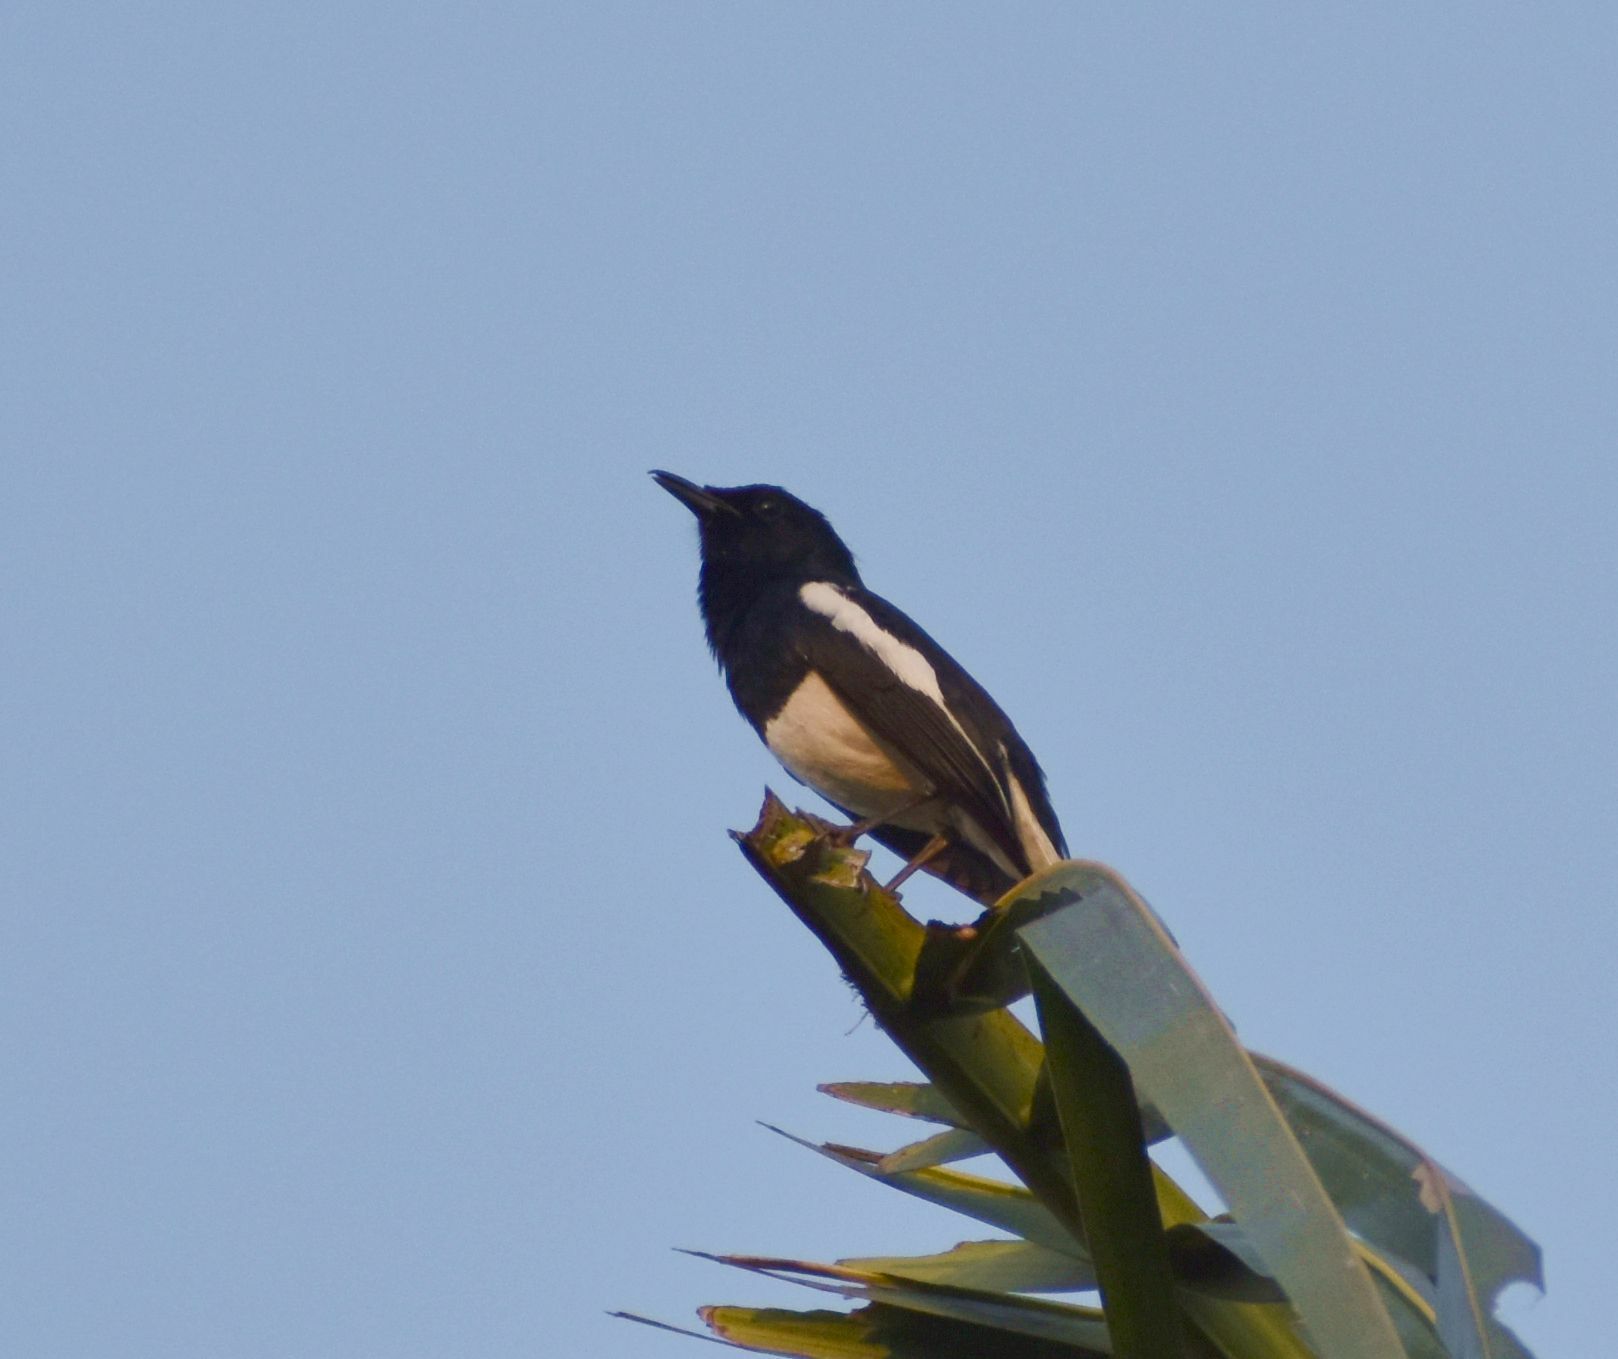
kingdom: Animalia
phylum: Chordata
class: Aves
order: Passeriformes
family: Muscicapidae
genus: Copsychus
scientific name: Copsychus saularis
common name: Oriental magpie-robin
